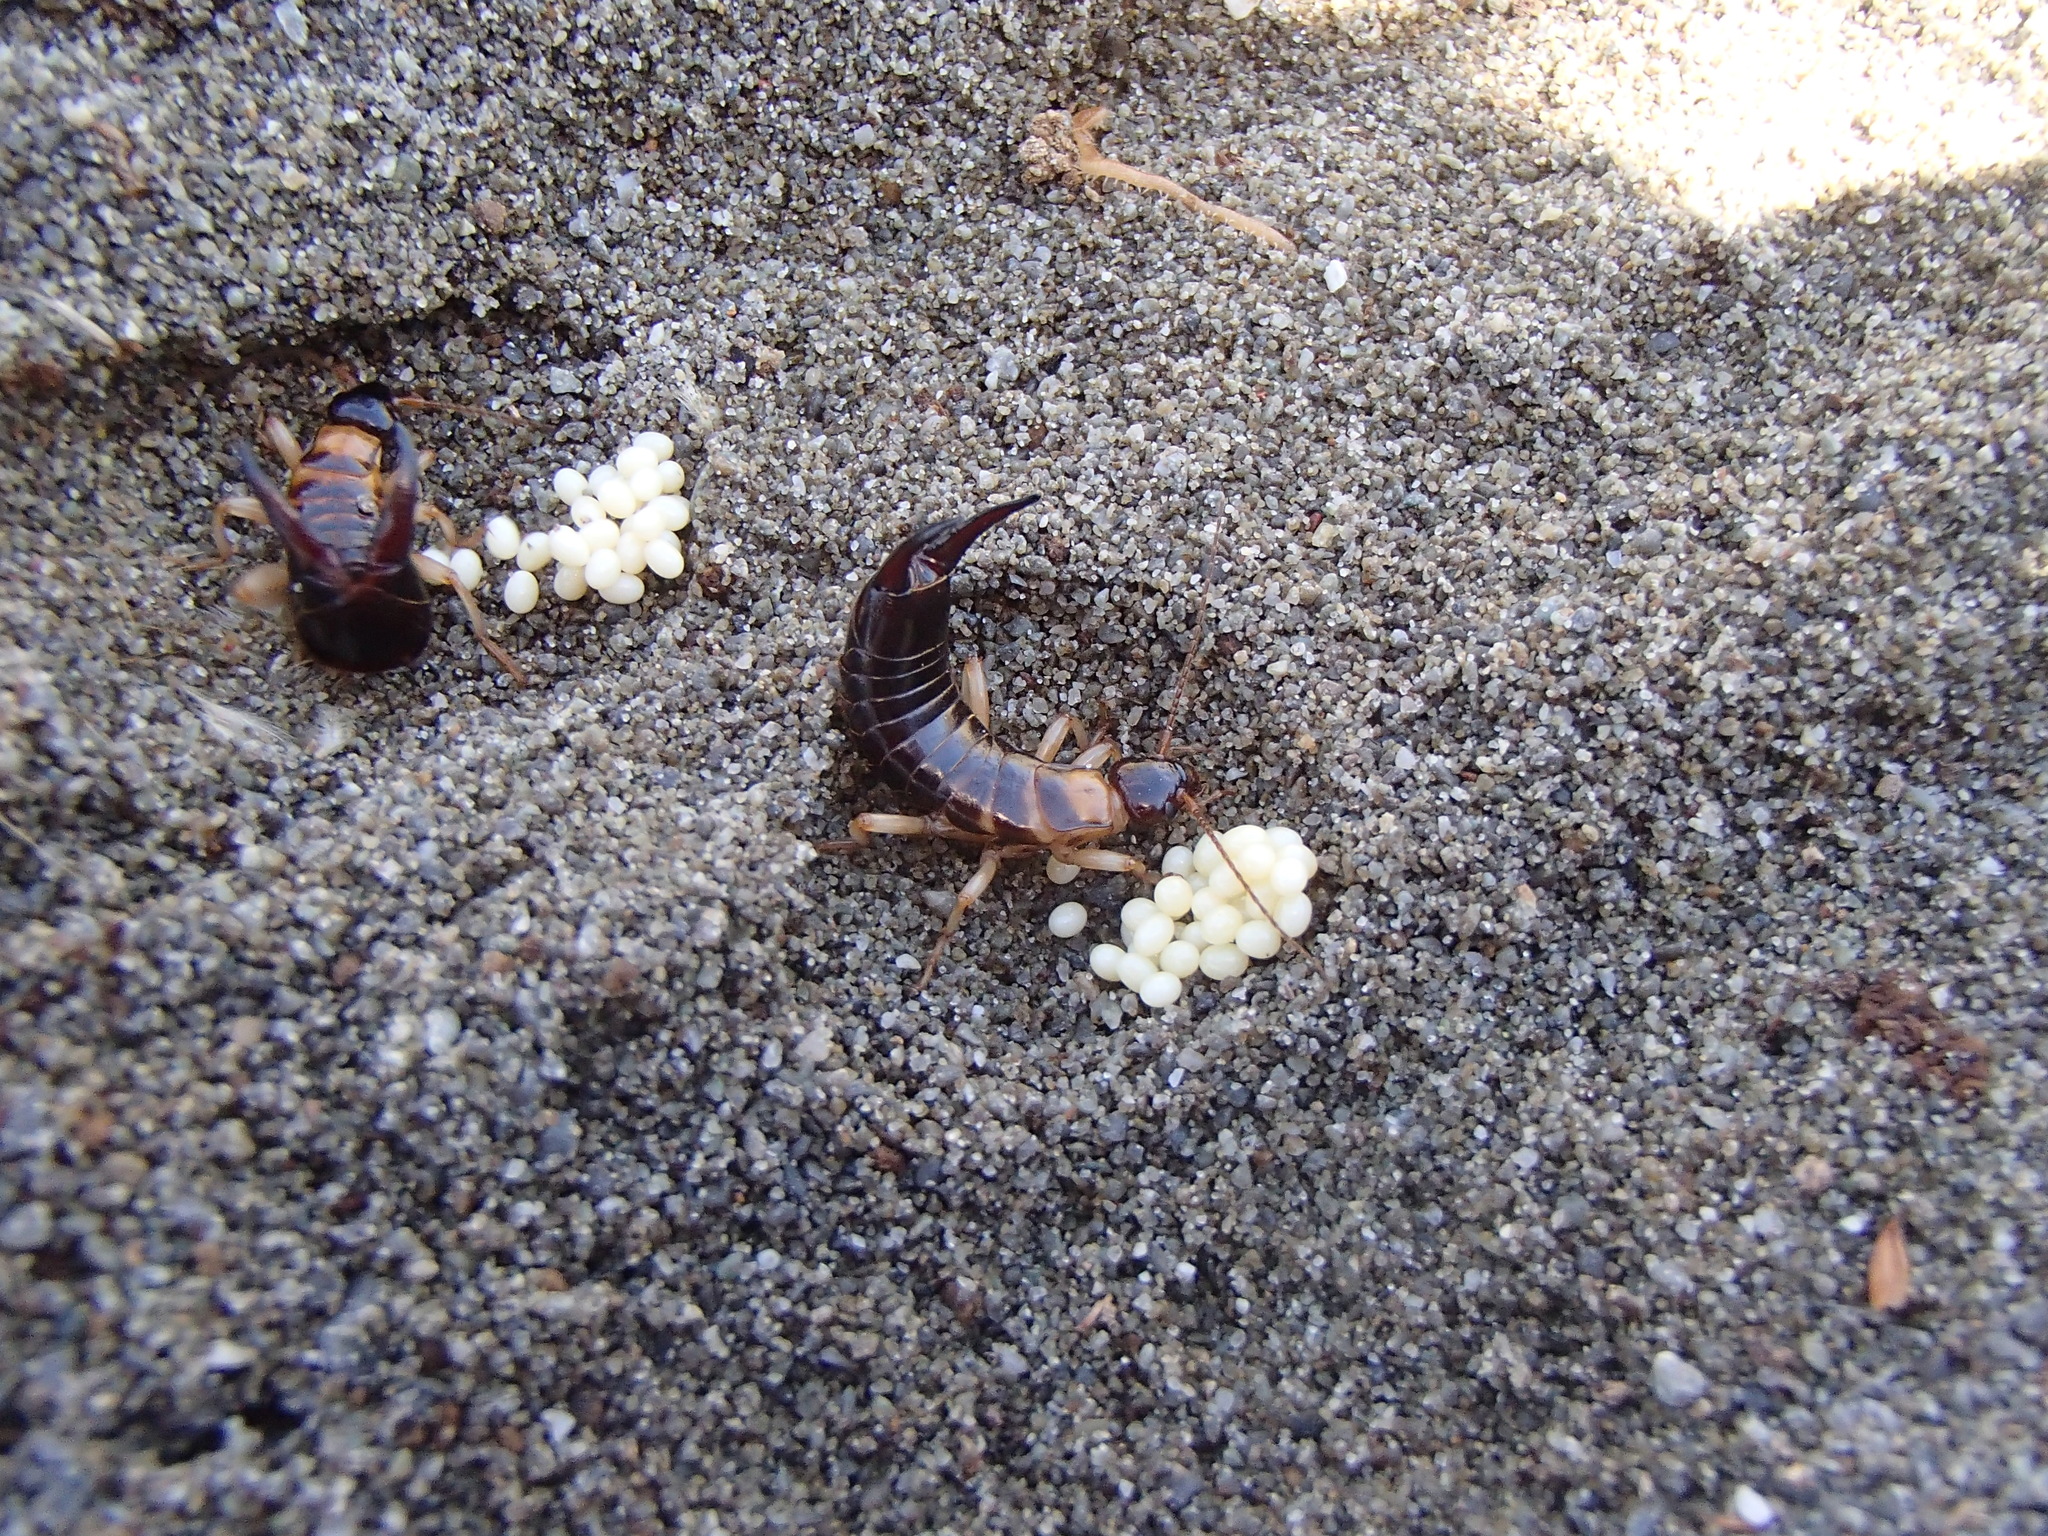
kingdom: Animalia
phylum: Arthropoda
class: Insecta
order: Dermaptera
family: Anisolabididae
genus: Anisolabis
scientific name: Anisolabis littorea
